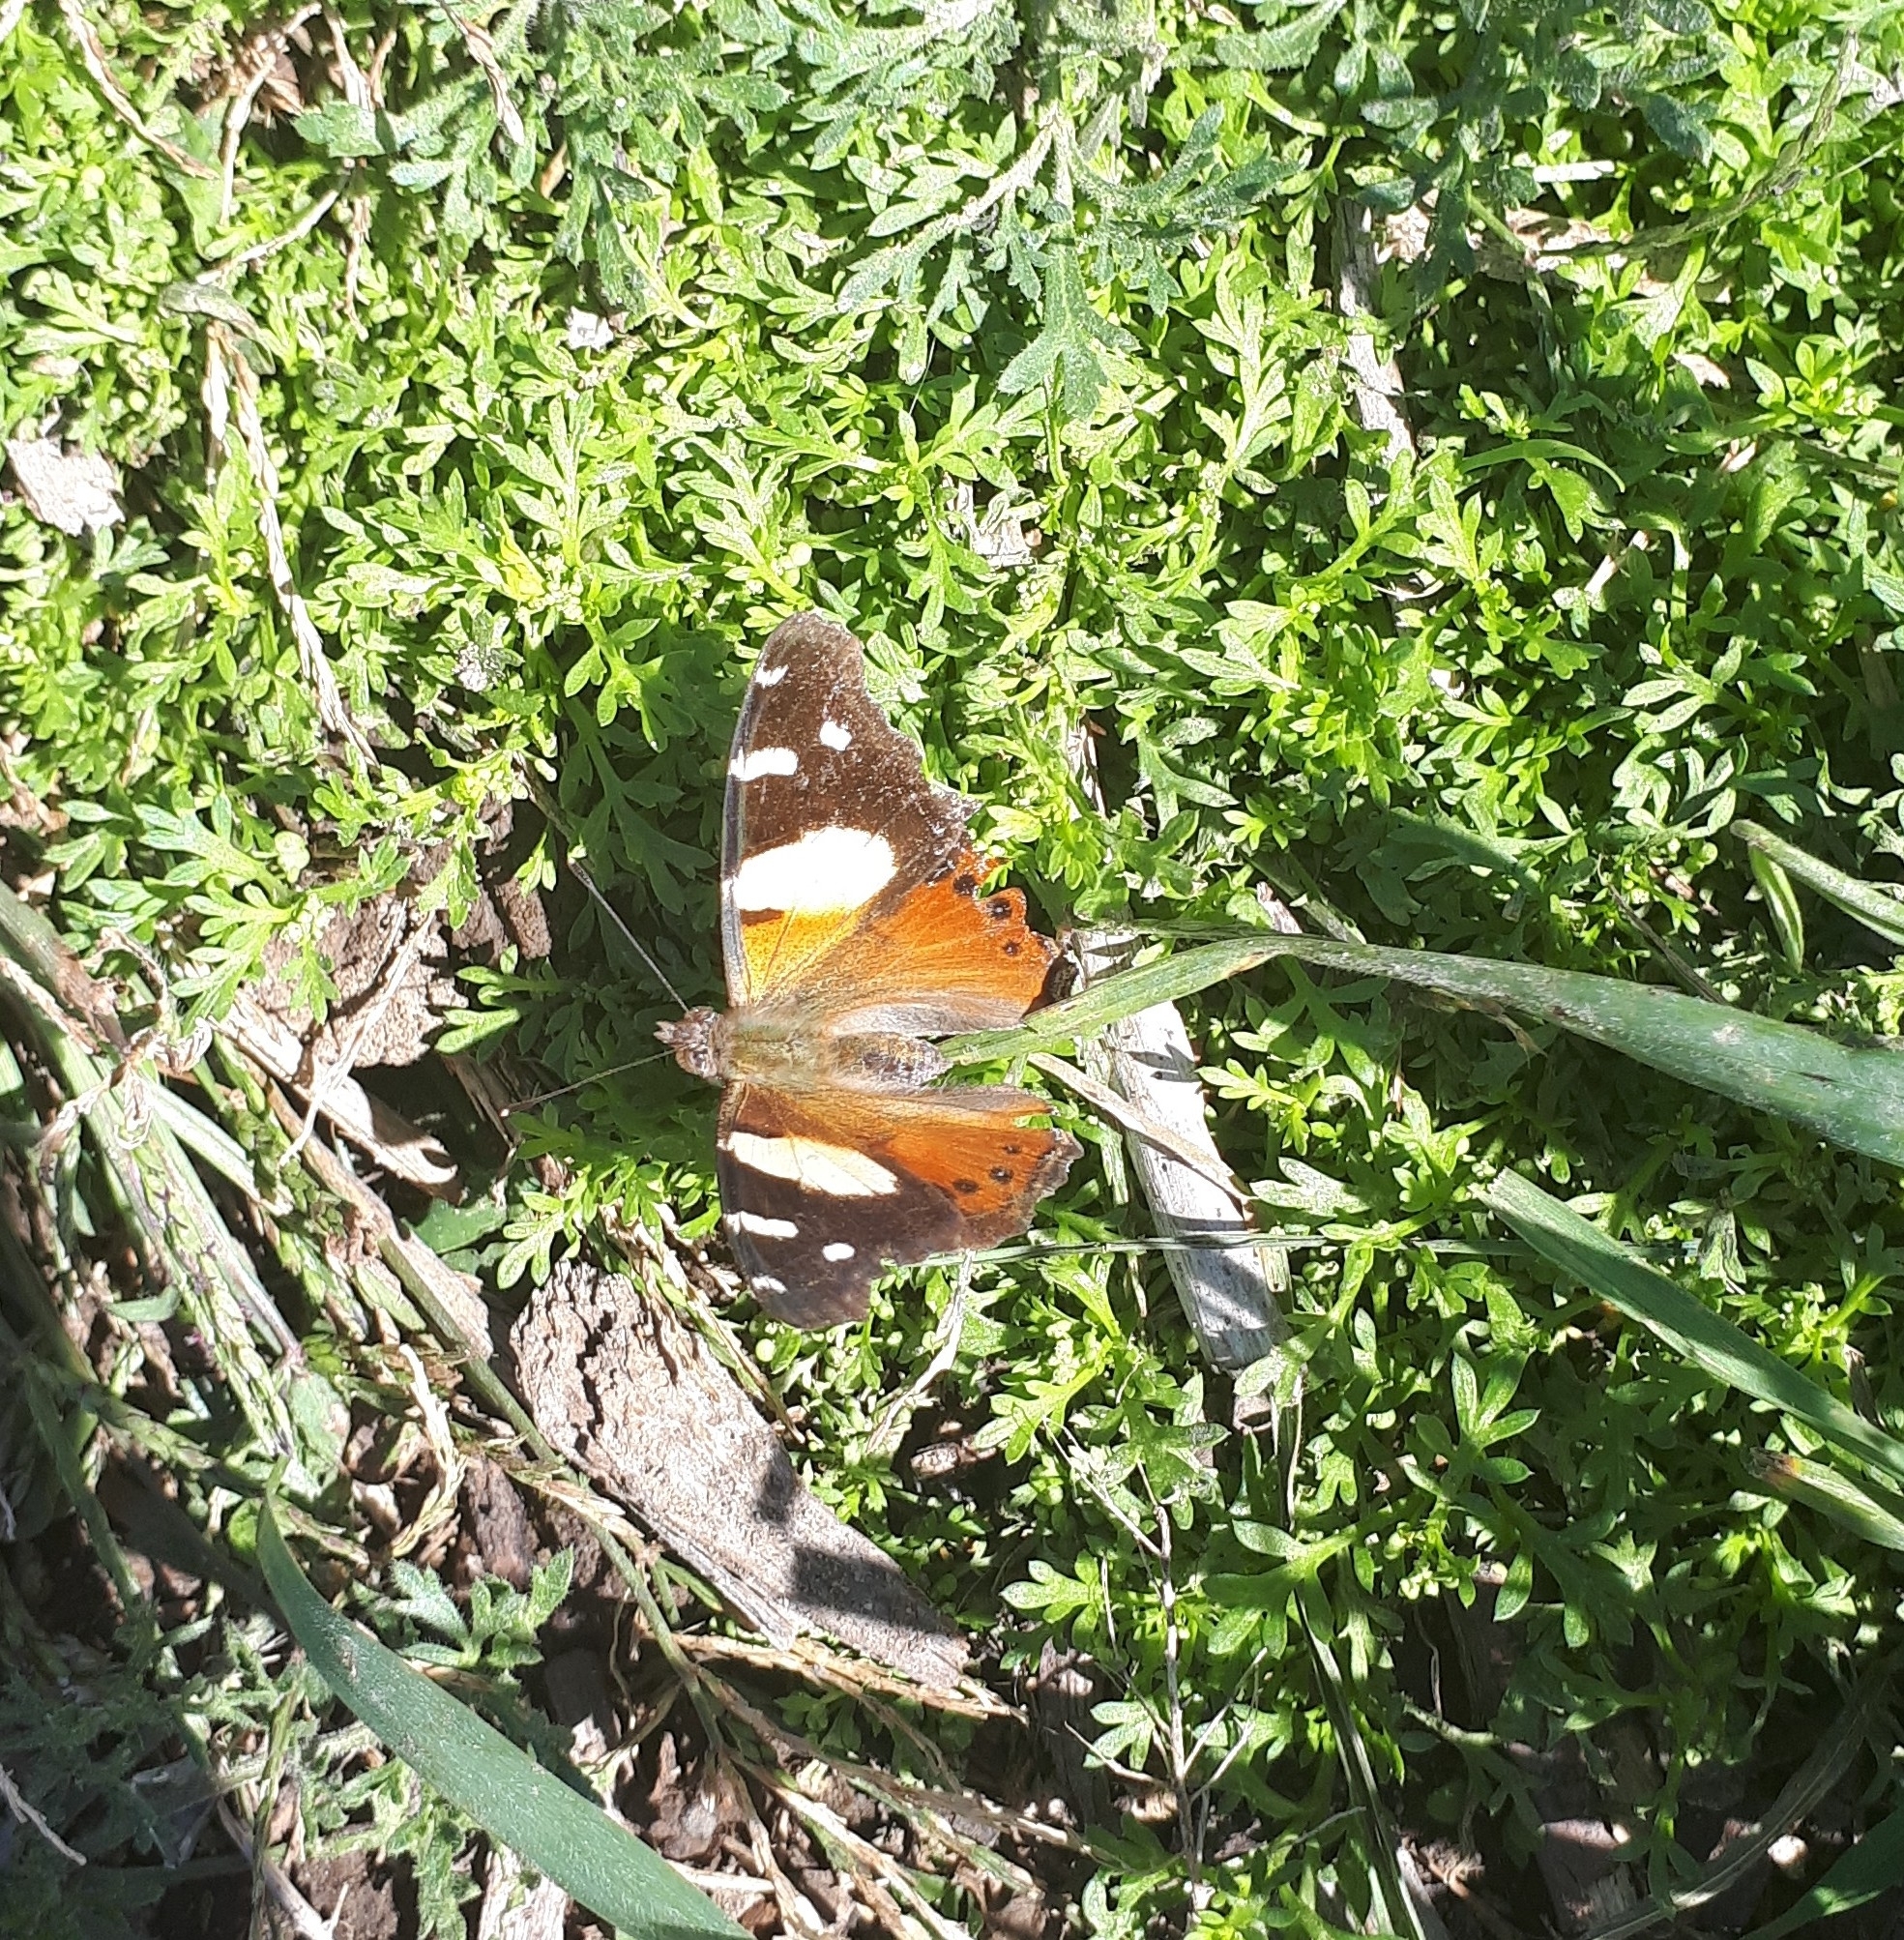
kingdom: Animalia
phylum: Arthropoda
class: Insecta
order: Lepidoptera
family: Nymphalidae
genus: Vanessa
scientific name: Vanessa itea
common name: Yellow admiral
